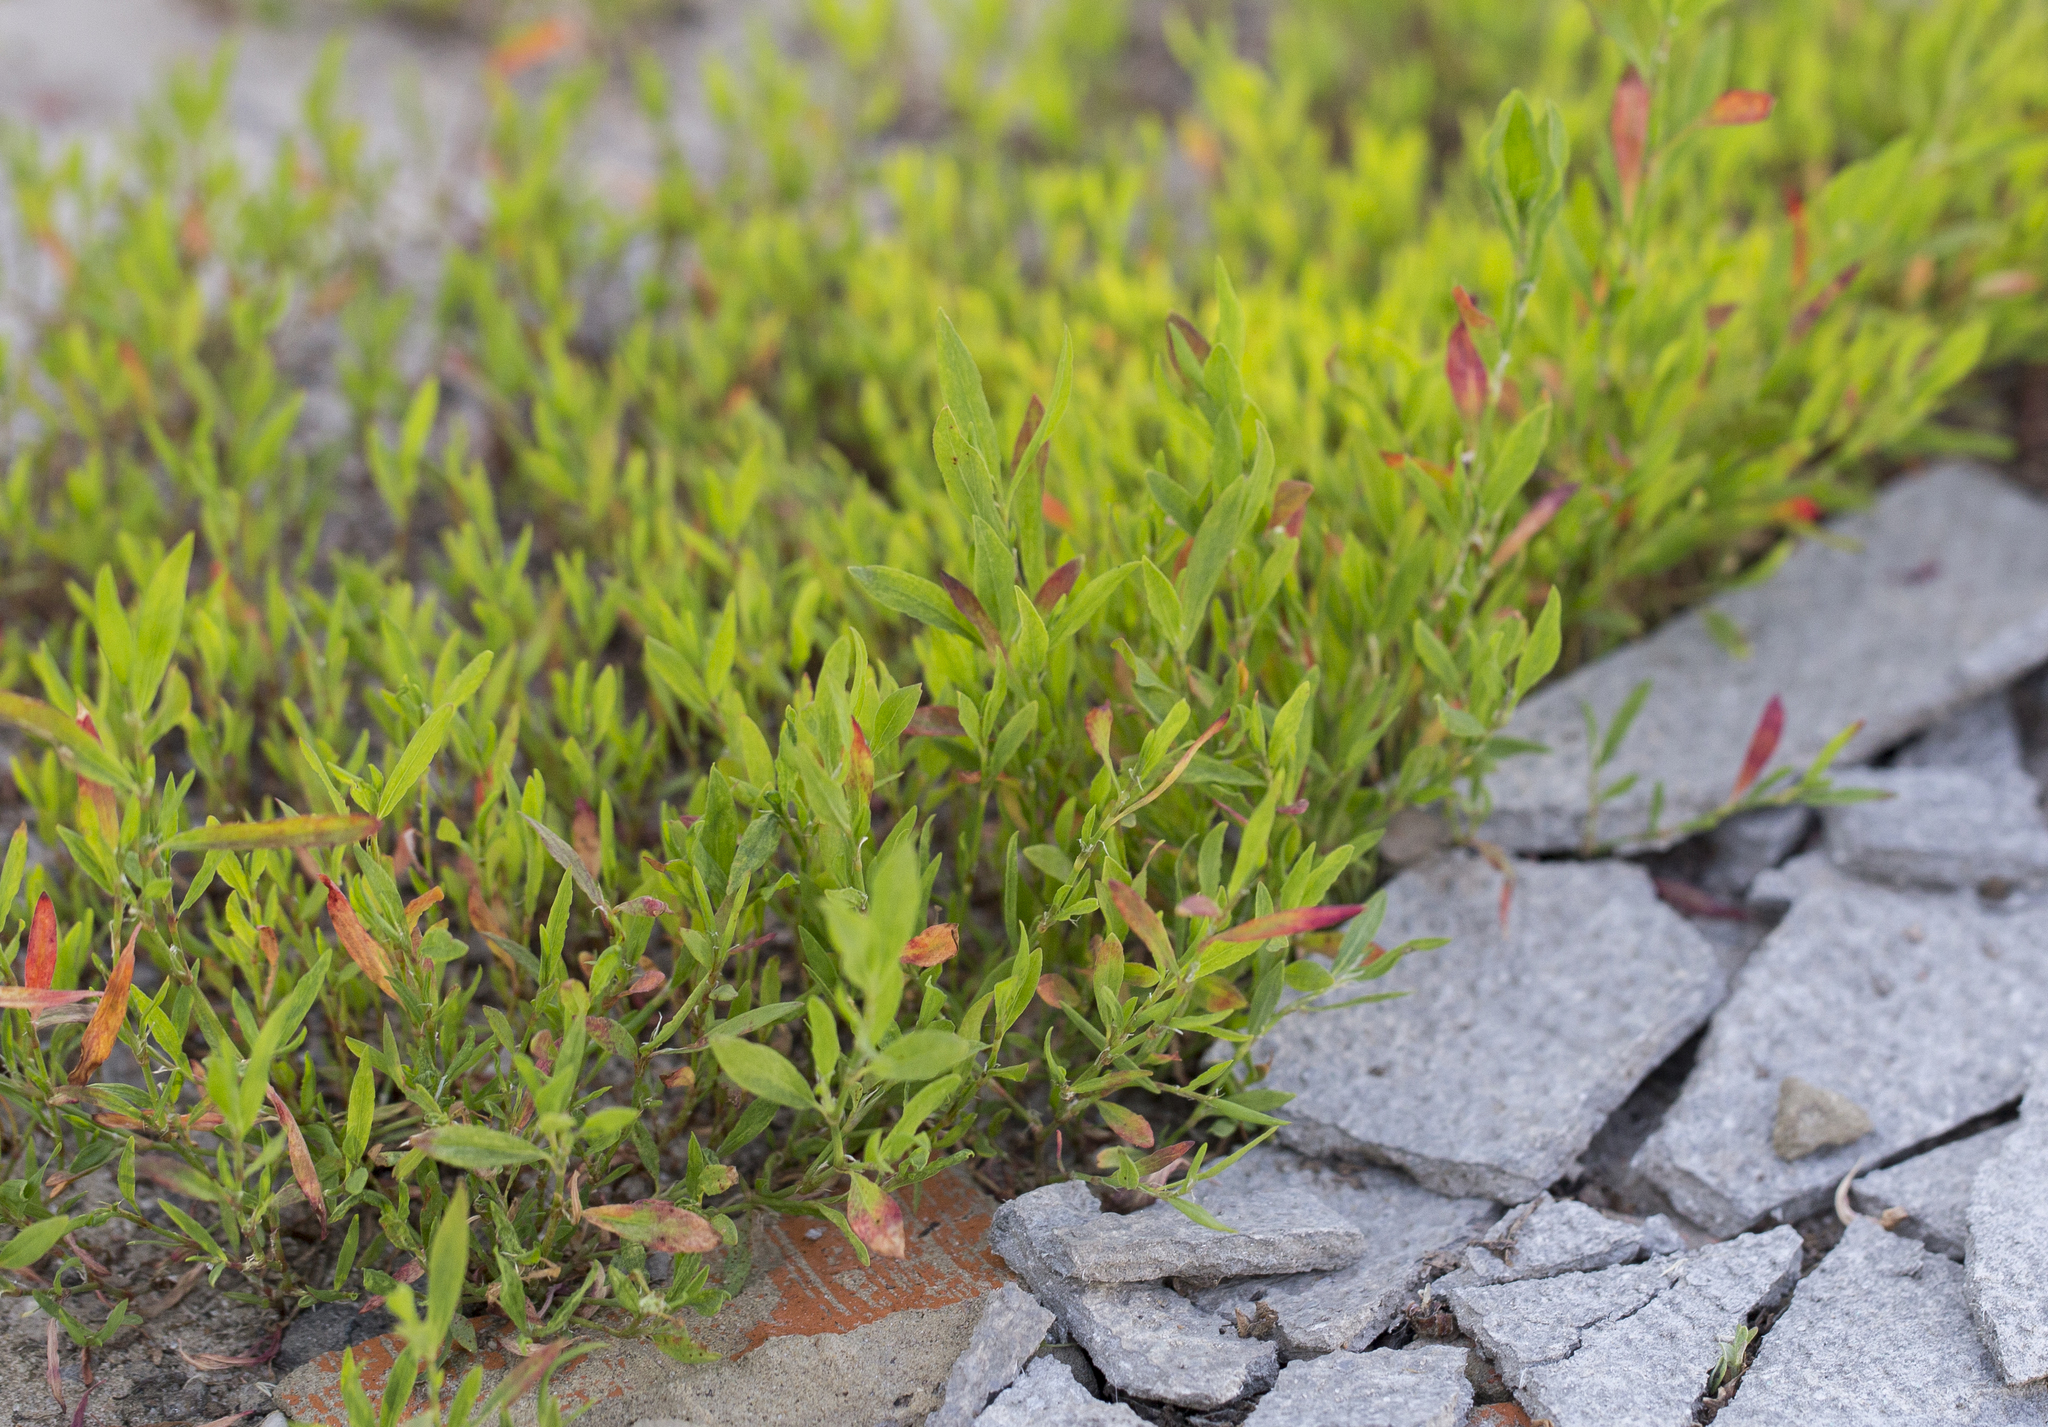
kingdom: Plantae
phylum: Tracheophyta
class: Magnoliopsida
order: Caryophyllales
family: Polygonaceae
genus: Polygonum
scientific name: Polygonum
